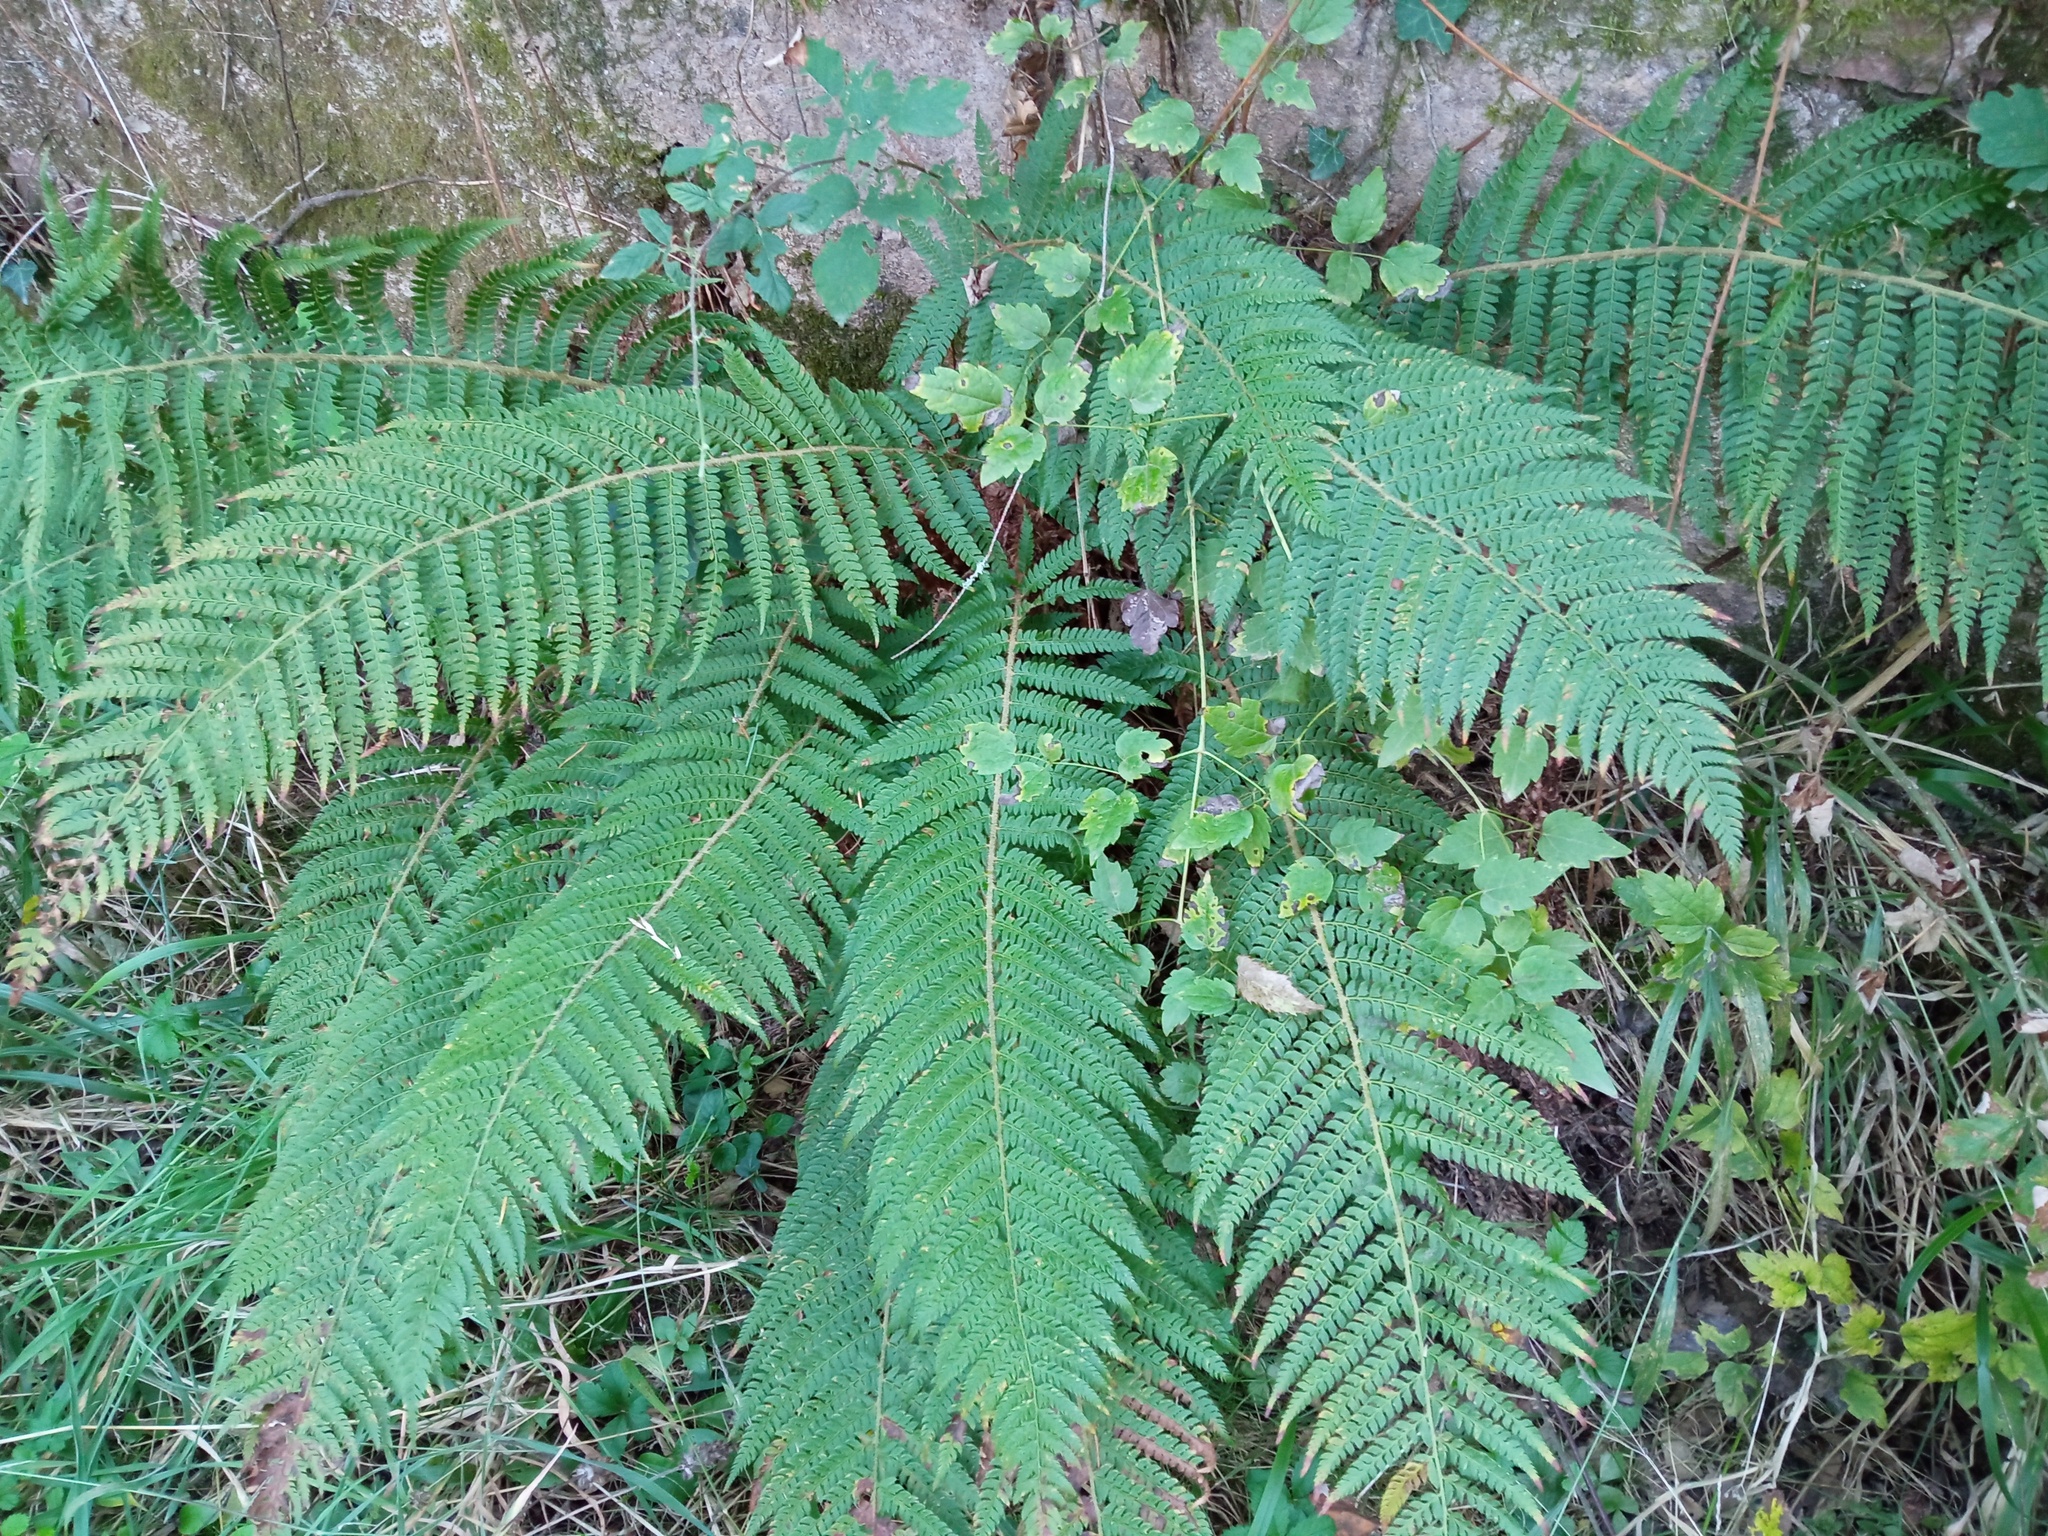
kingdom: Plantae
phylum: Tracheophyta
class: Polypodiopsida
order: Polypodiales
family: Dryopteridaceae
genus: Polystichum
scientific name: Polystichum setiferum
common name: Soft shield-fern
